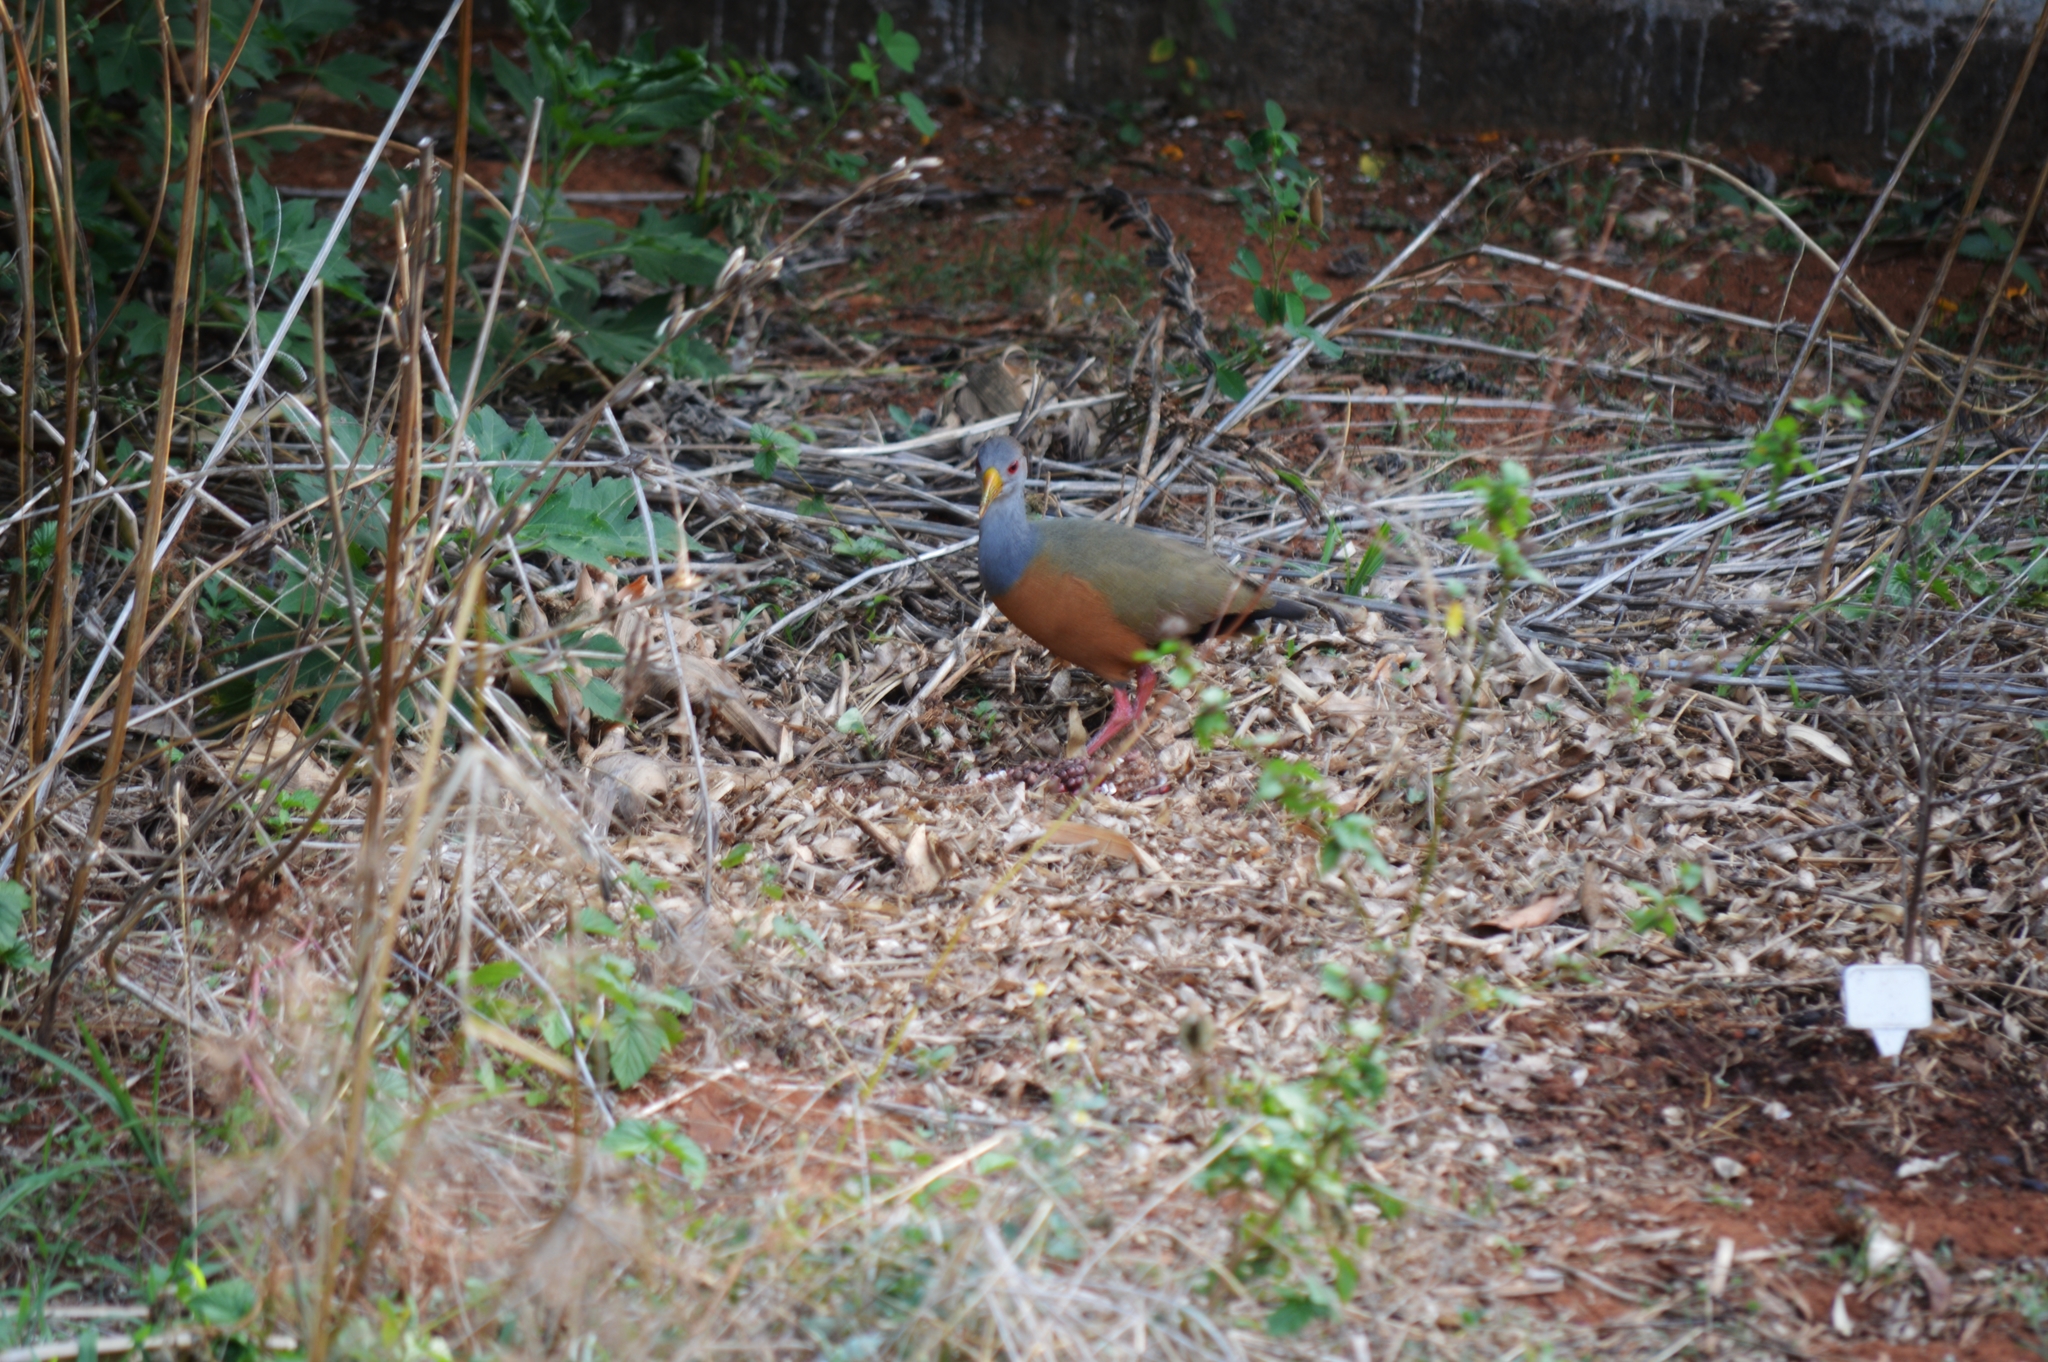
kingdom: Animalia
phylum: Chordata
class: Aves
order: Gruiformes
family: Rallidae
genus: Aramides
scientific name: Aramides cajanea
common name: Gray-necked wood-rail
